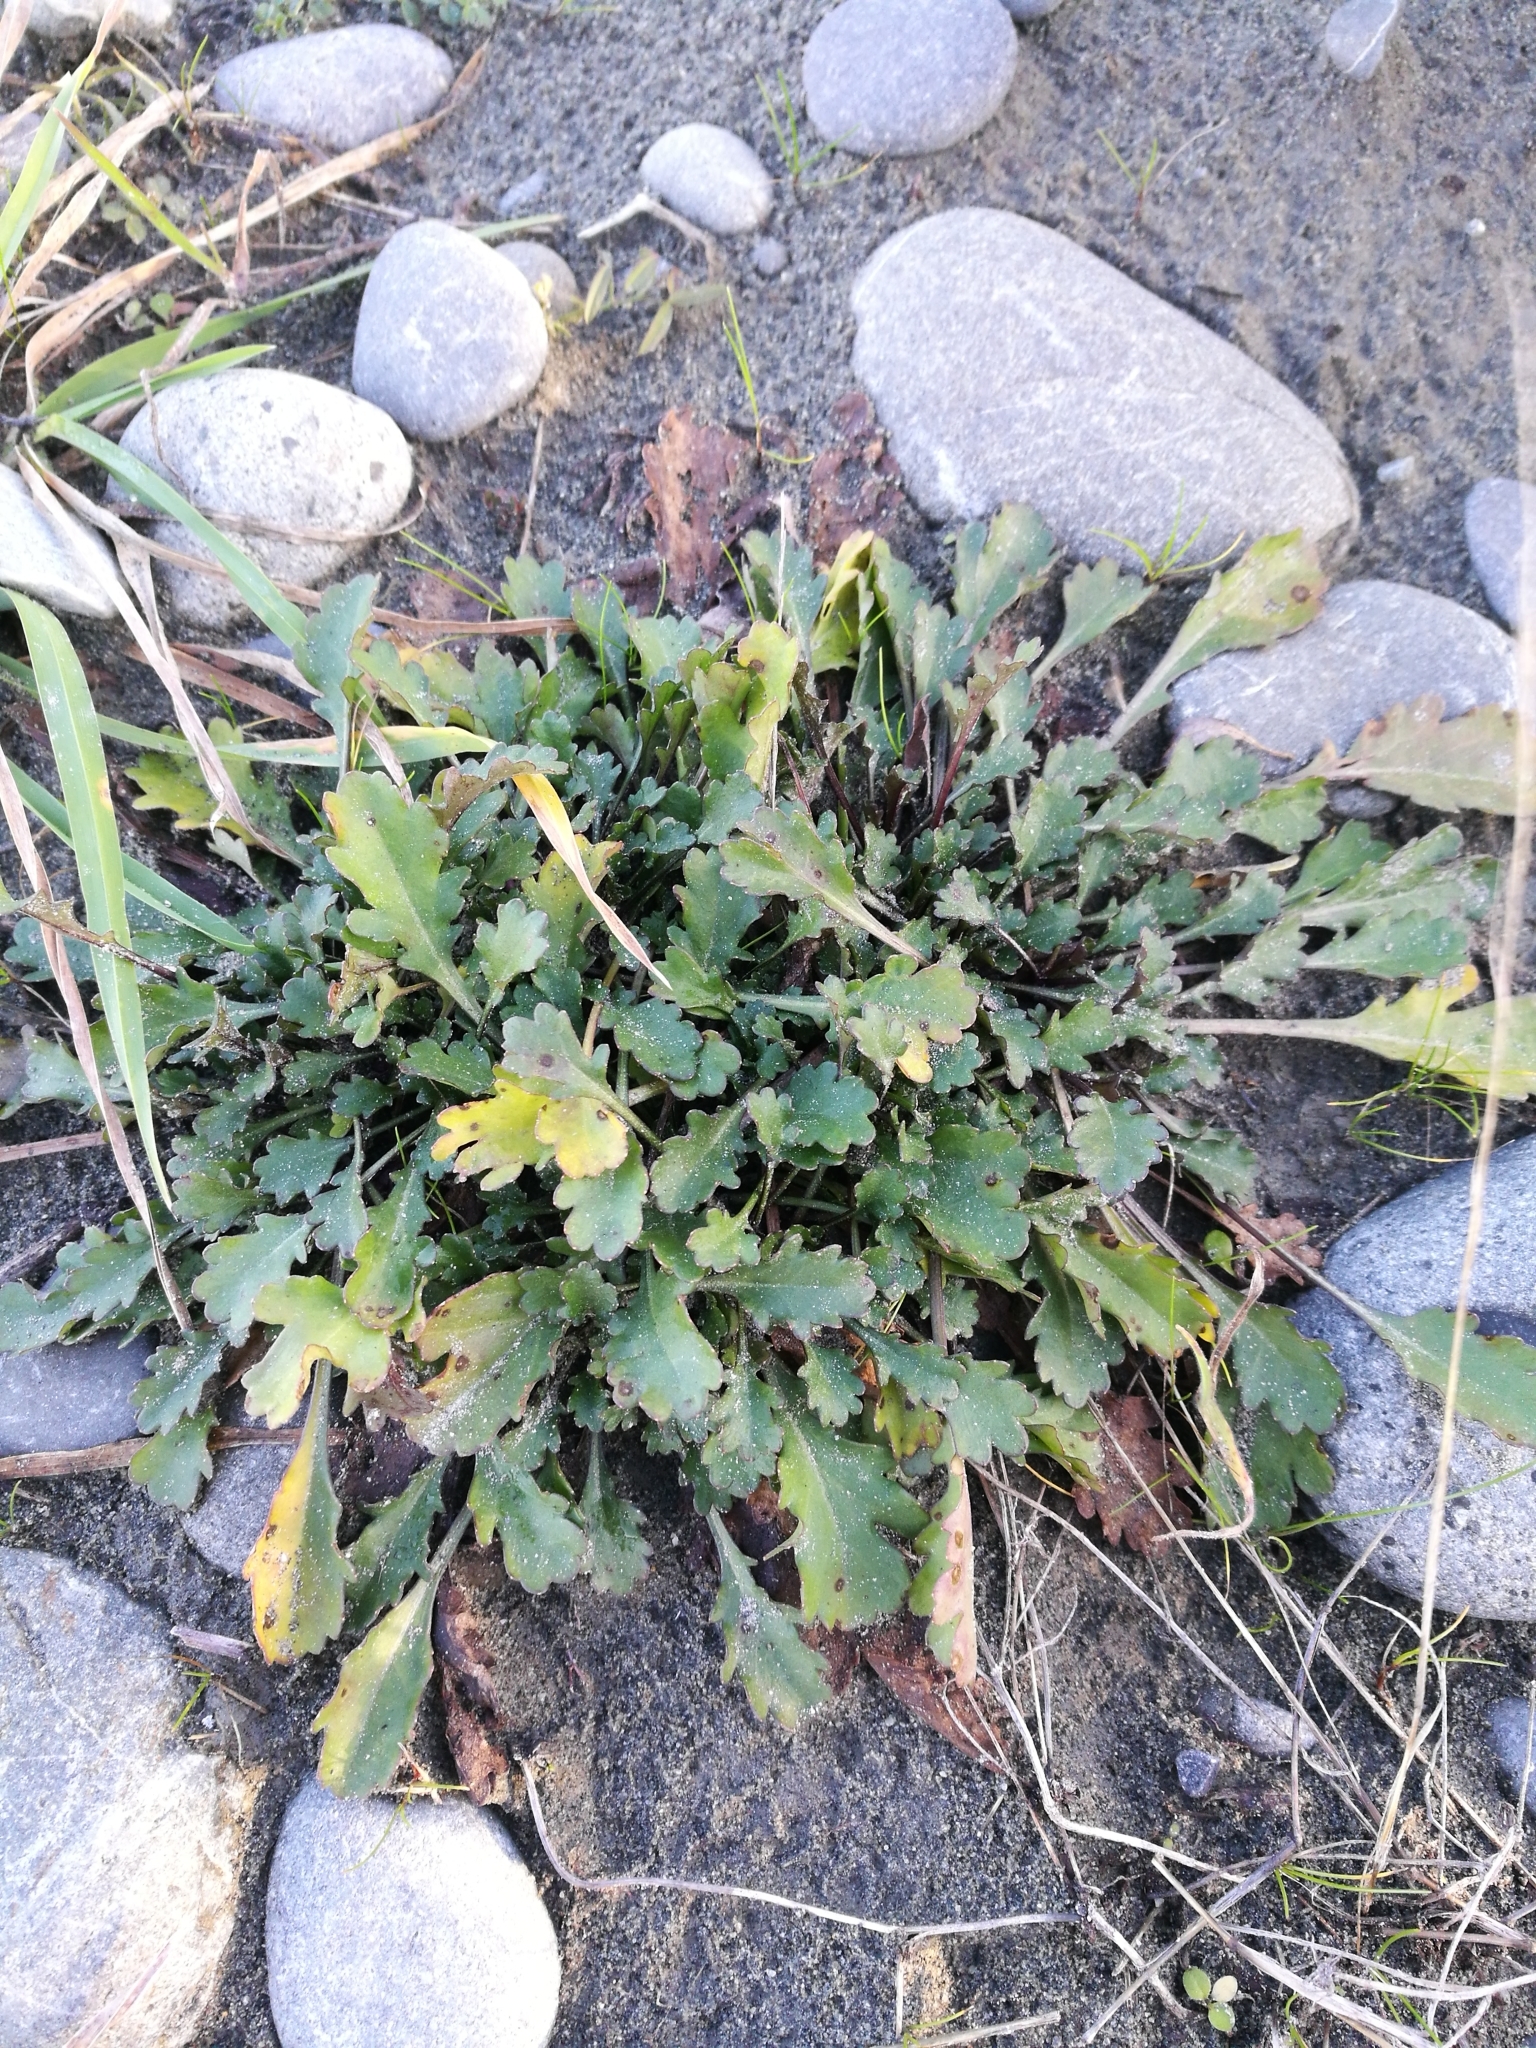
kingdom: Plantae
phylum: Tracheophyta
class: Magnoliopsida
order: Asterales
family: Asteraceae
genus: Leucanthemum
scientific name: Leucanthemum vulgare
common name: Oxeye daisy
